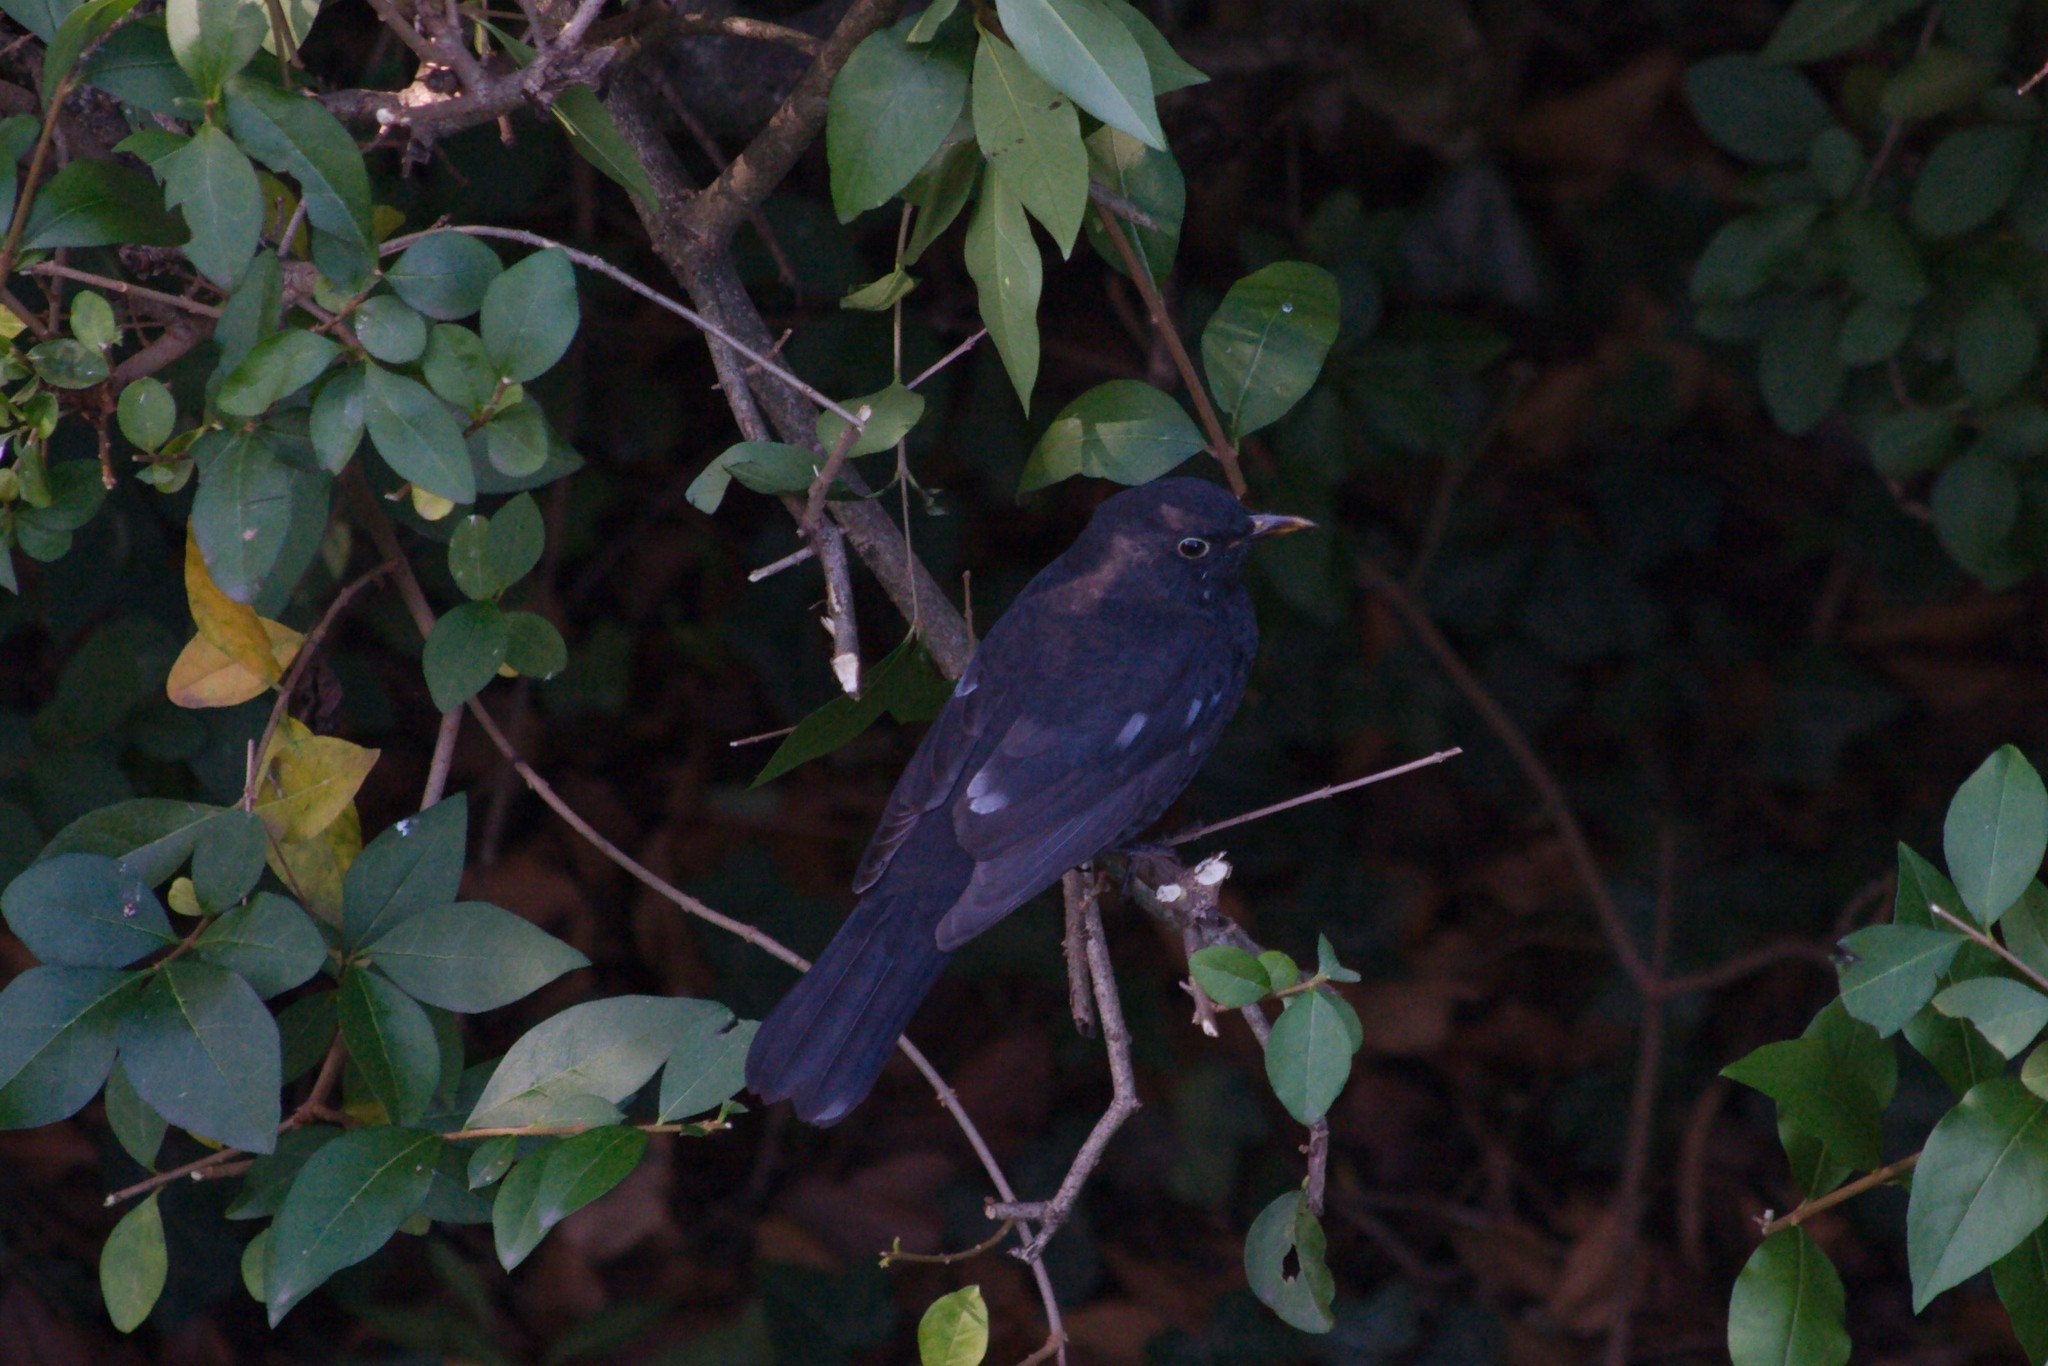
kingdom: Animalia
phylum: Chordata
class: Aves
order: Passeriformes
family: Turdidae
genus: Turdus
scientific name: Turdus merula
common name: Common blackbird
